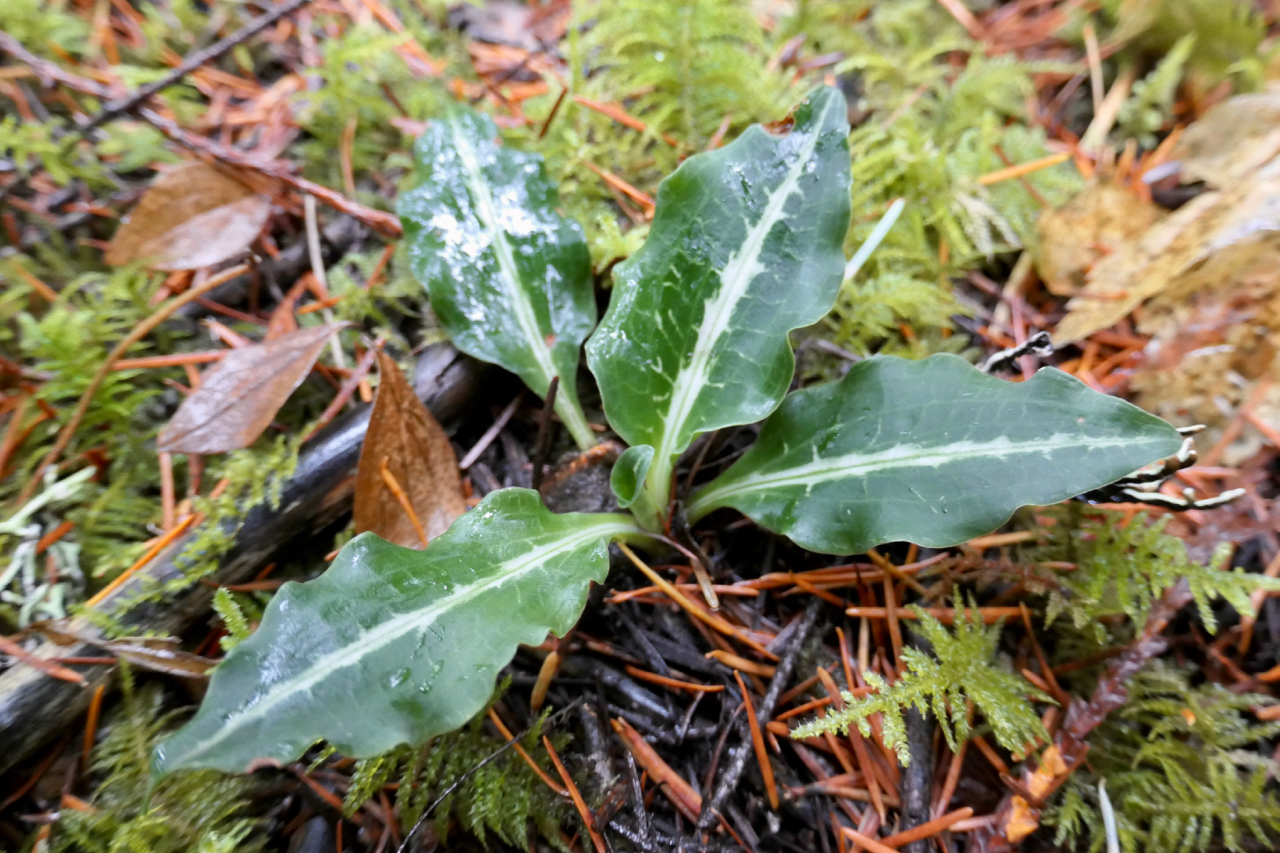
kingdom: Plantae
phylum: Tracheophyta
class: Liliopsida
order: Asparagales
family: Orchidaceae
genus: Goodyera
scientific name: Goodyera oblongifolia
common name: Giant rattlesnake-plantain
